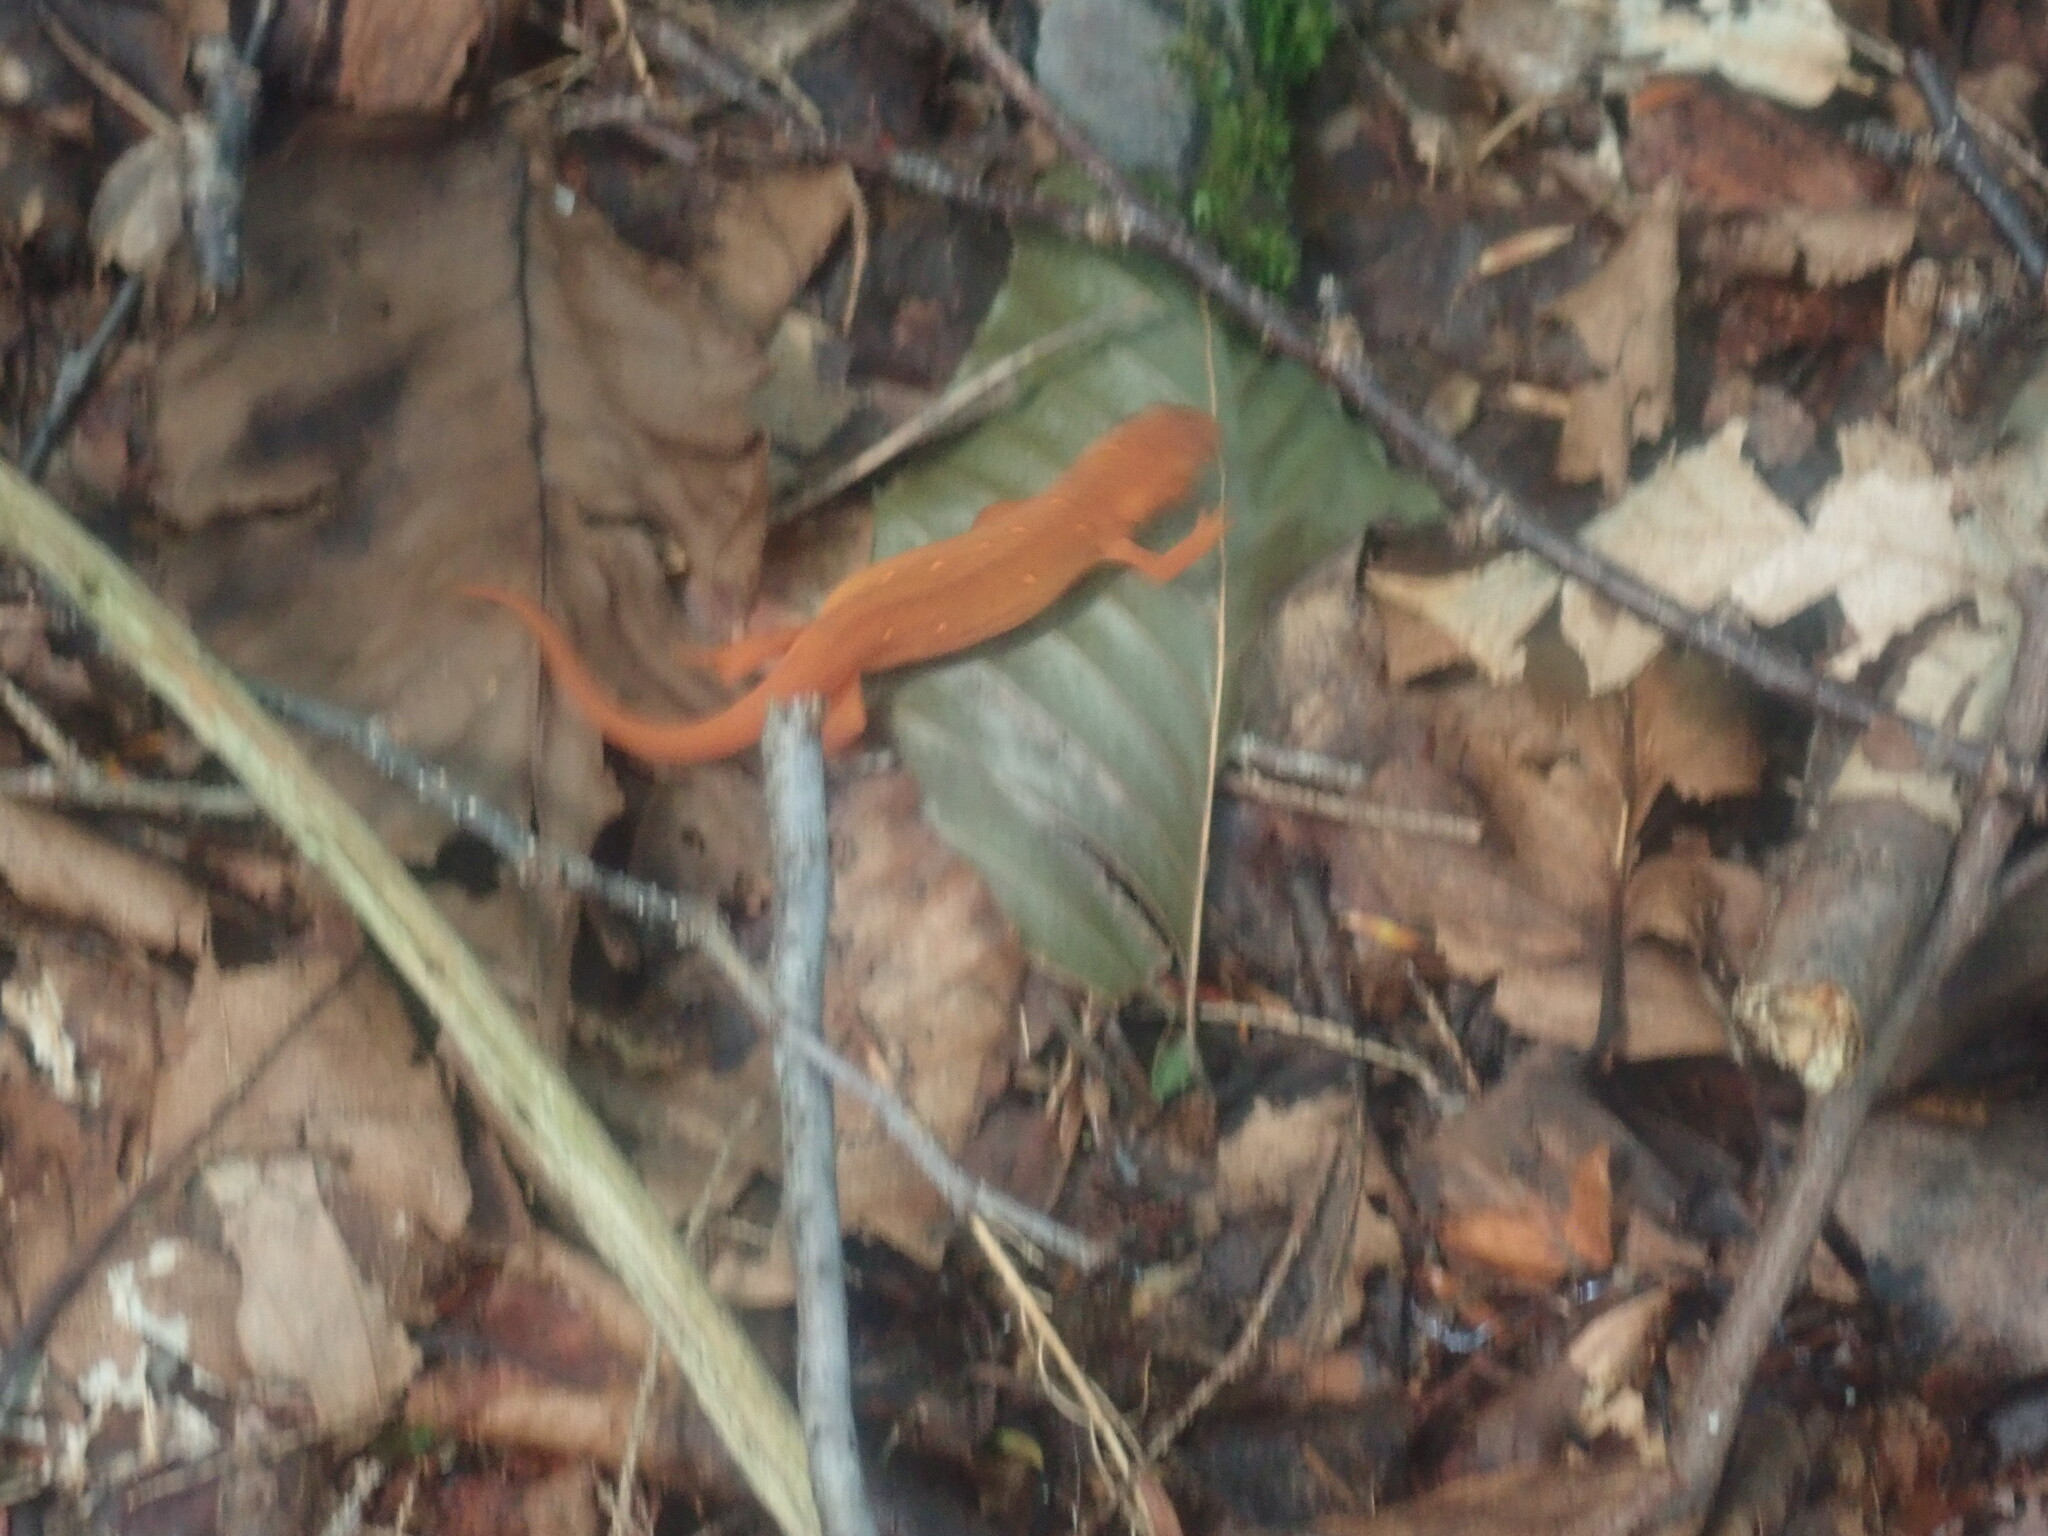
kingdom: Animalia
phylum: Chordata
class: Amphibia
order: Caudata
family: Salamandridae
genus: Notophthalmus
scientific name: Notophthalmus viridescens
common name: Eastern newt
